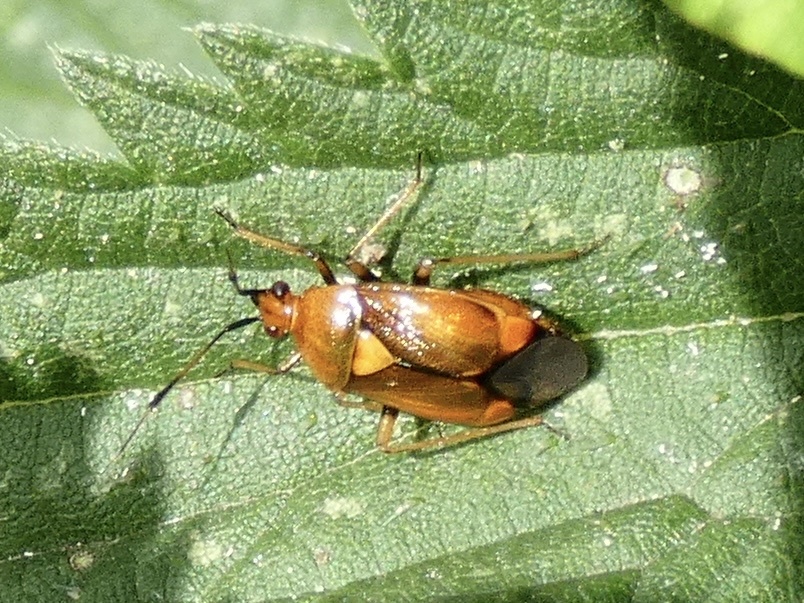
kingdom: Animalia
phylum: Arthropoda
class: Insecta
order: Hemiptera
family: Miridae
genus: Deraeocoris
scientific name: Deraeocoris ruber
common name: Plant bug
